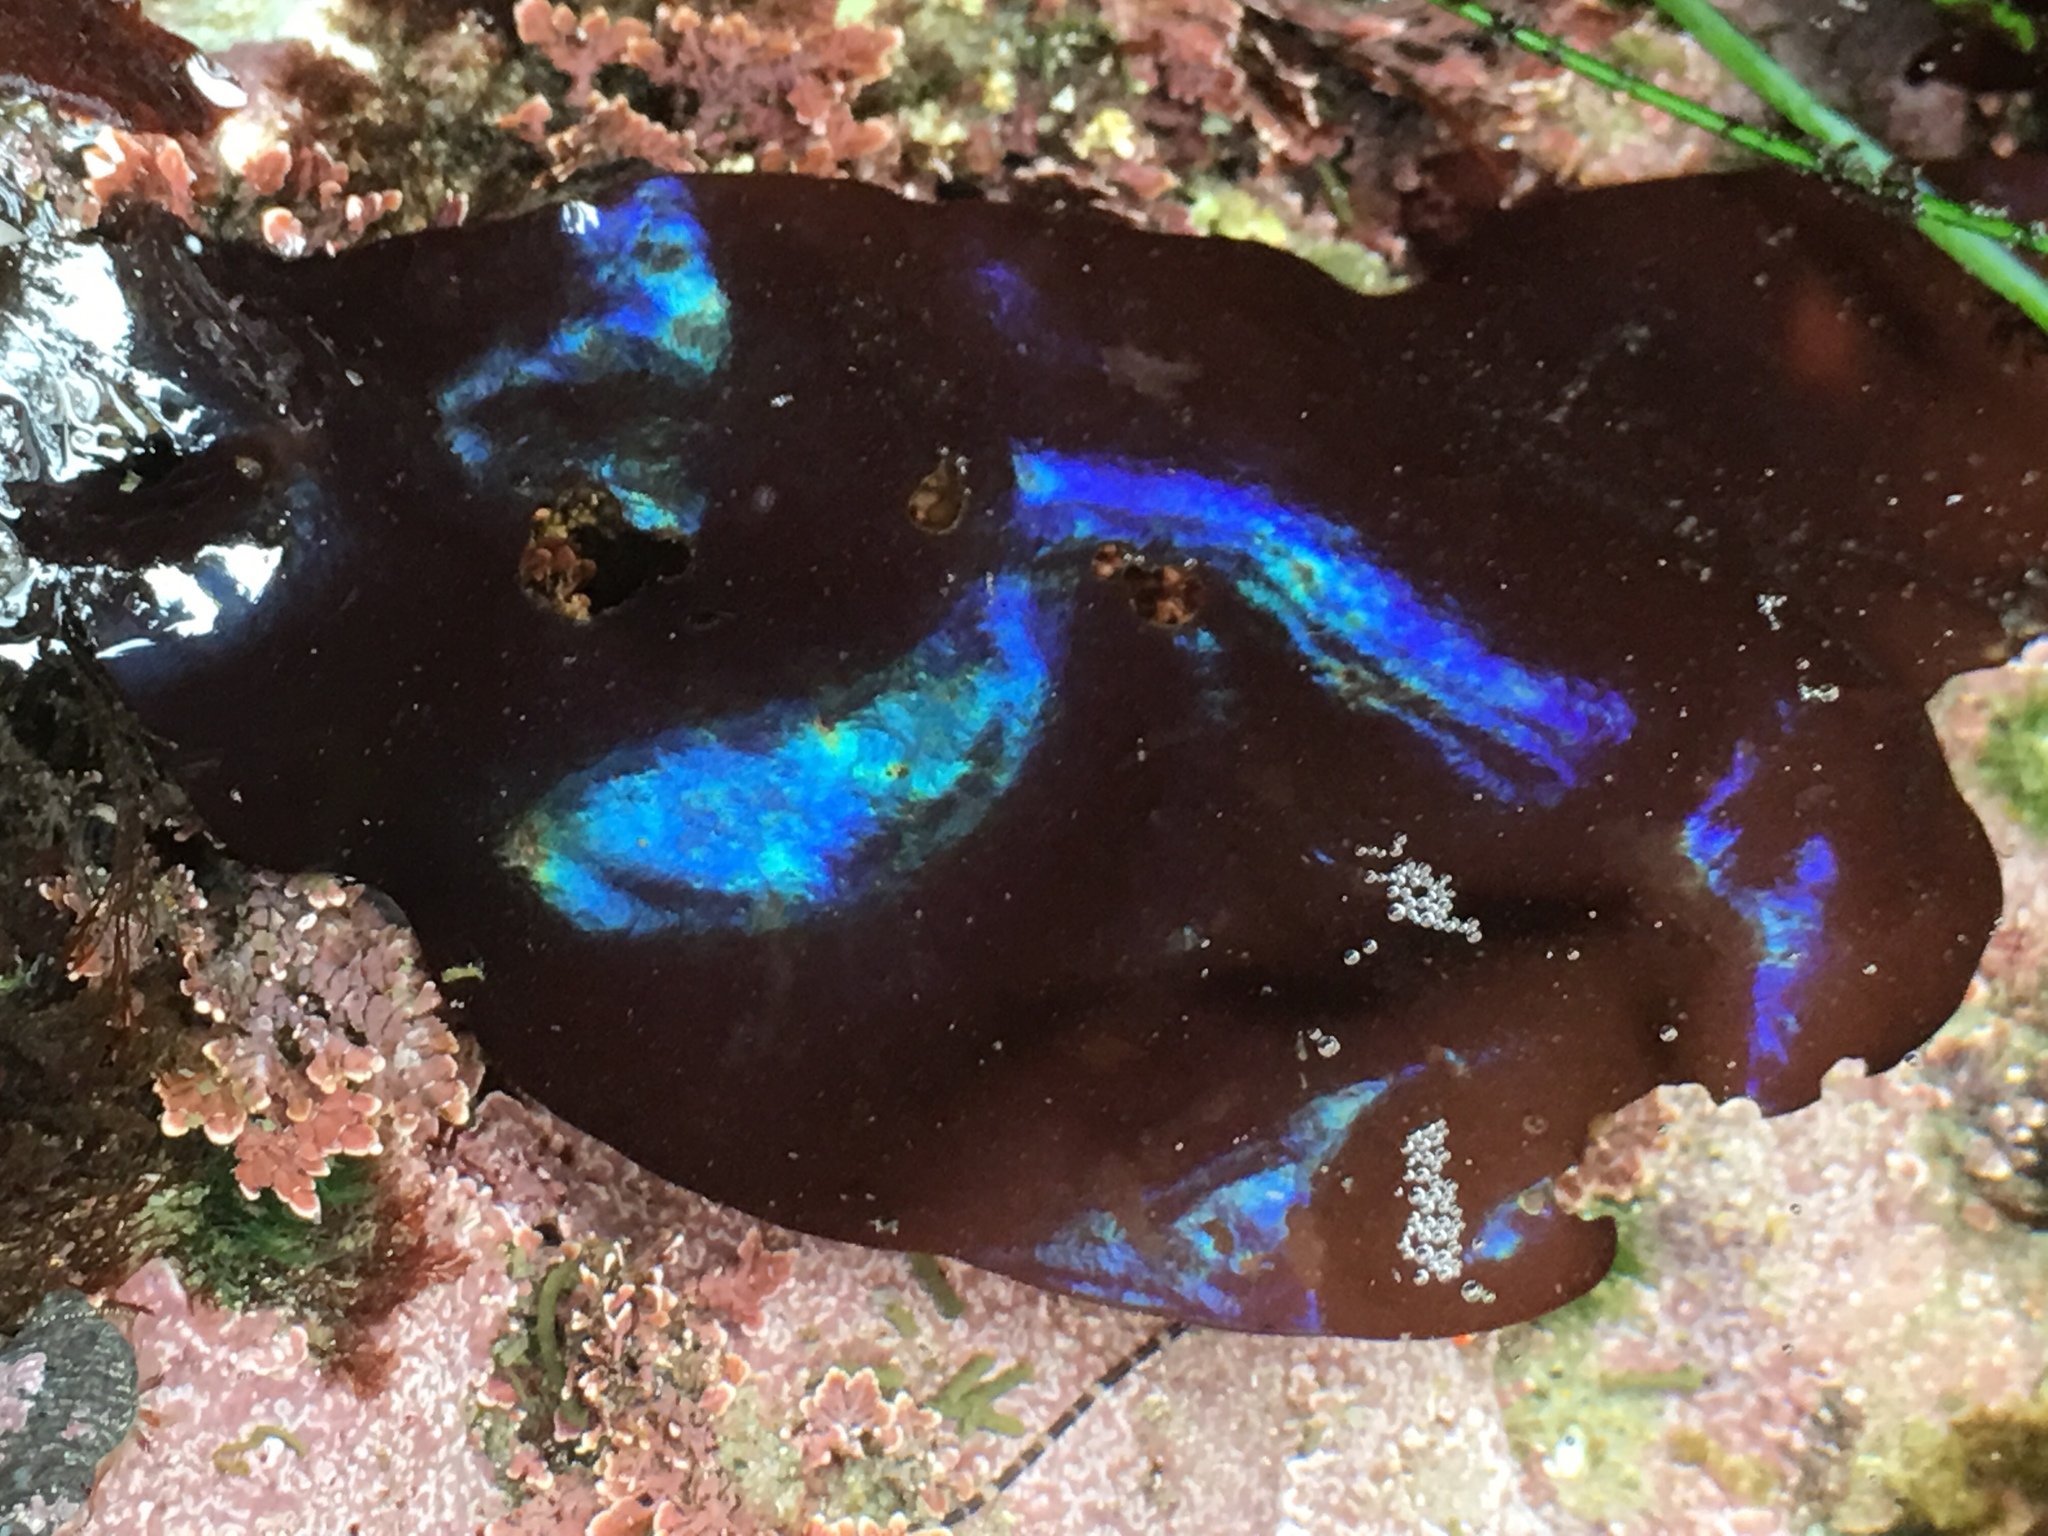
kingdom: Plantae
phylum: Rhodophyta
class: Florideophyceae
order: Gigartinales
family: Gigartinaceae
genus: Mazzaella
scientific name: Mazzaella splendens
